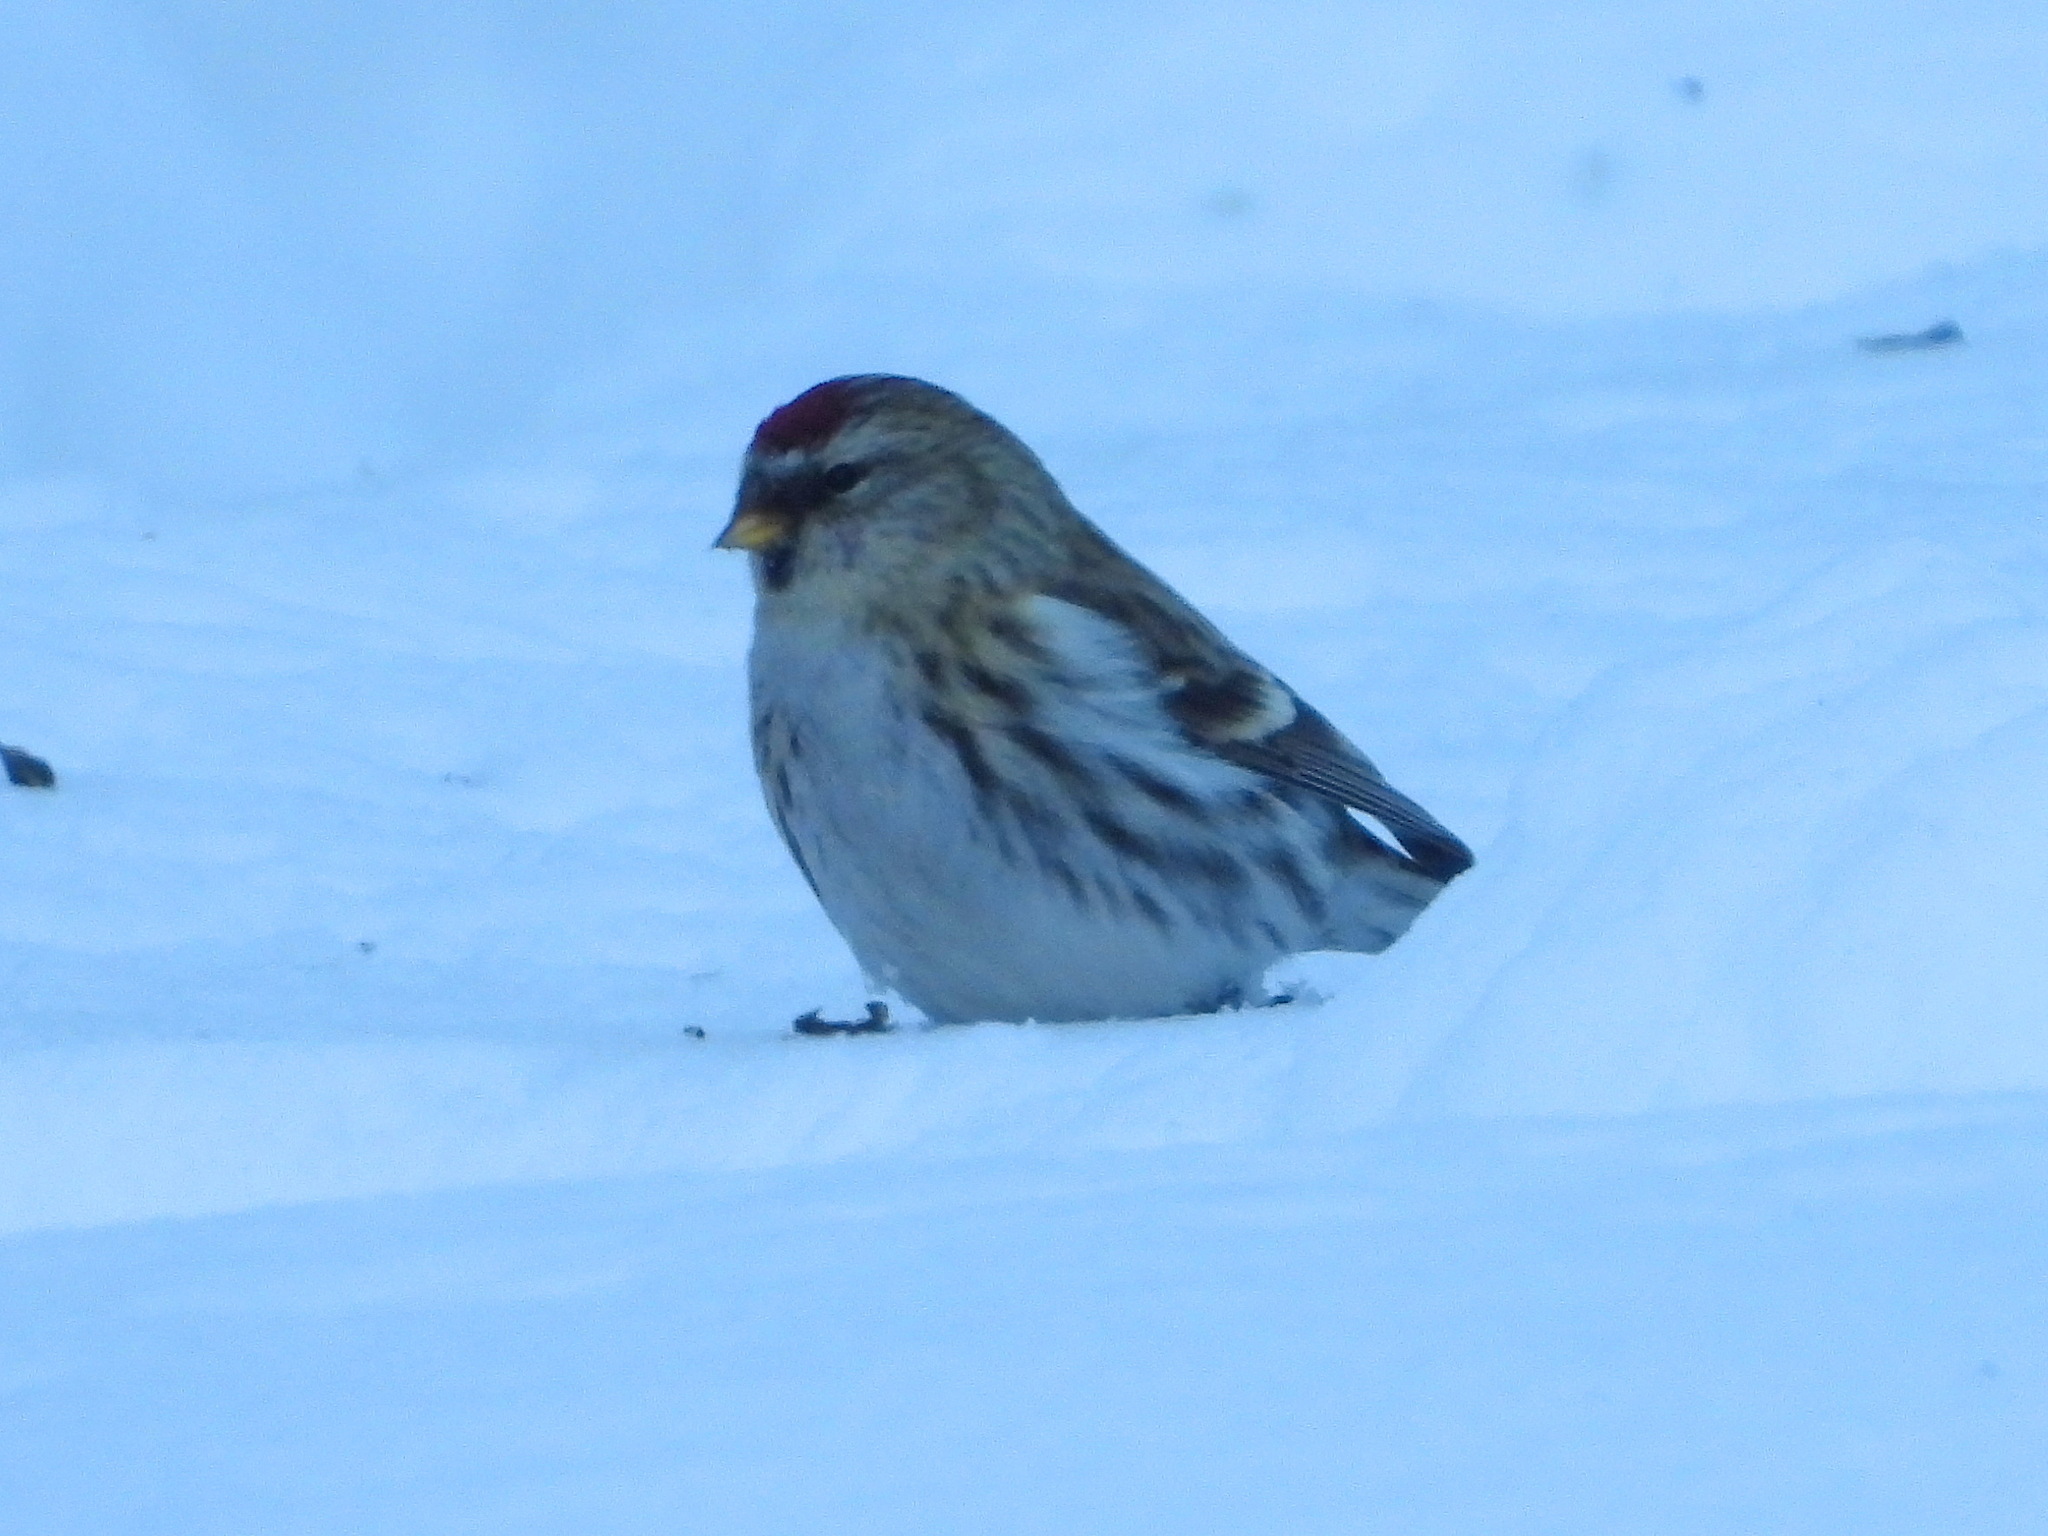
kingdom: Animalia
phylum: Chordata
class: Aves
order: Passeriformes
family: Fringillidae
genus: Acanthis
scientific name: Acanthis flammea
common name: Common redpoll
